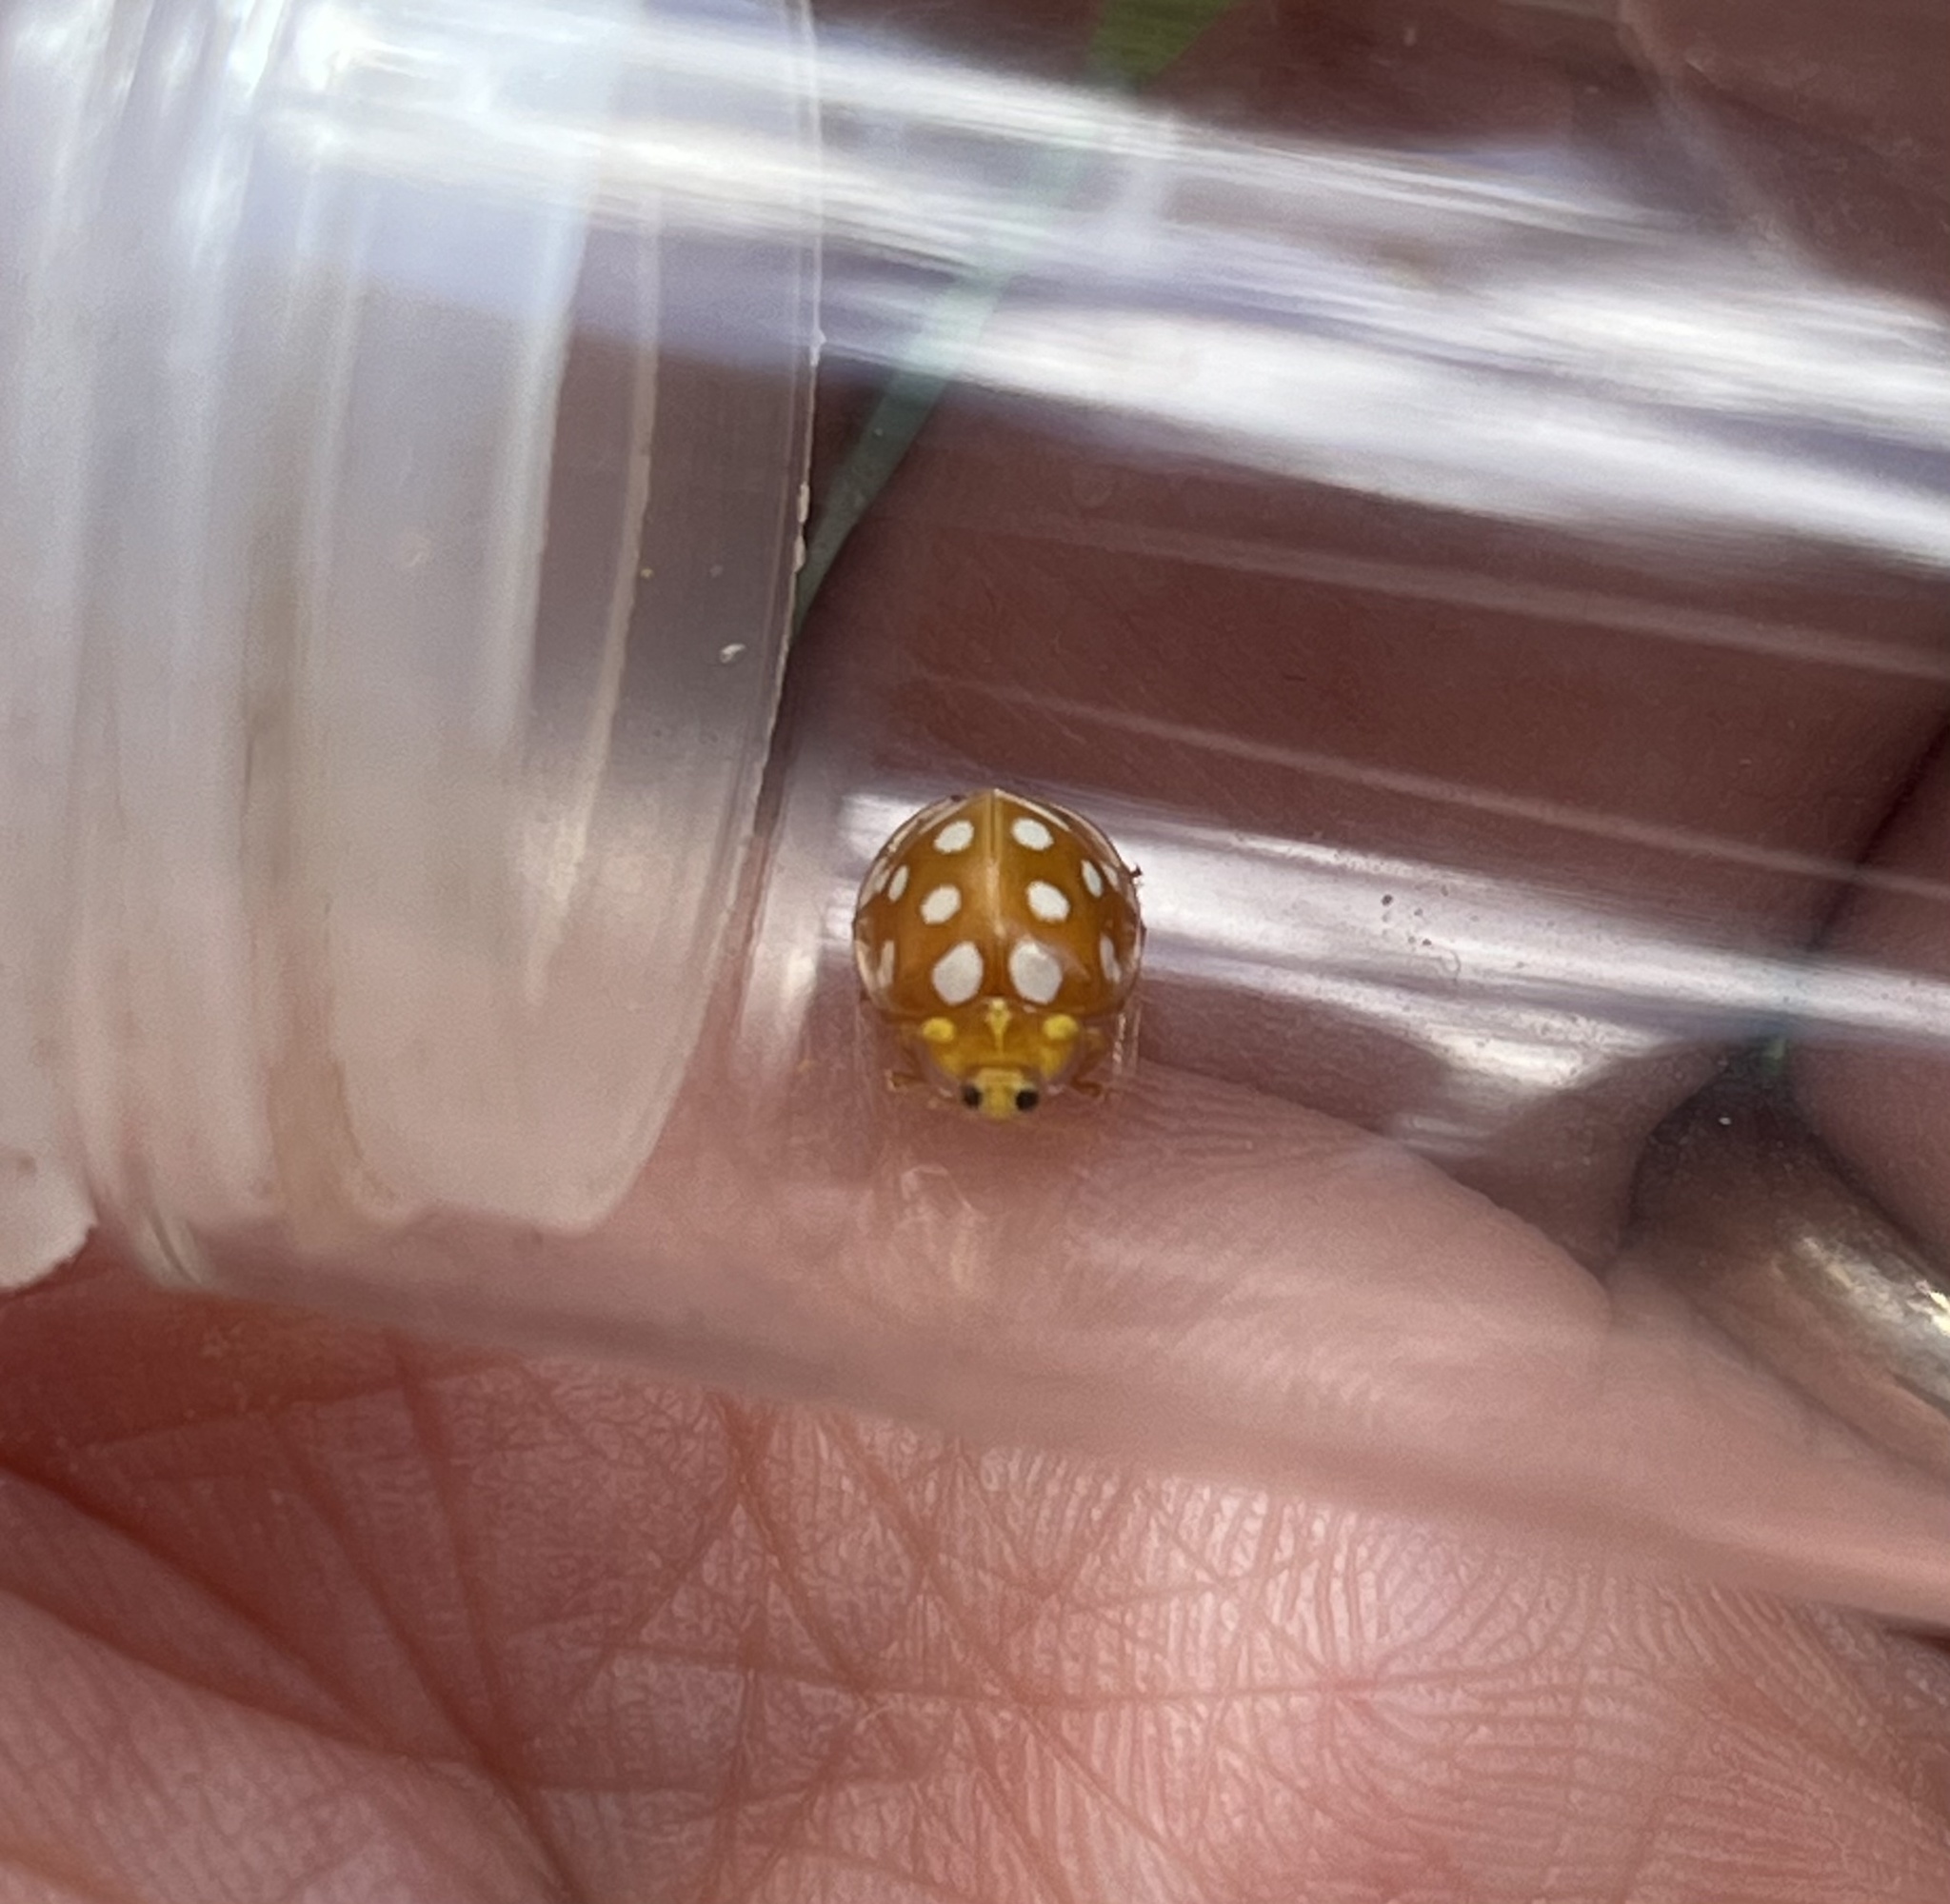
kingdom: Animalia
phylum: Arthropoda
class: Insecta
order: Coleoptera
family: Coccinellidae
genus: Halyzia
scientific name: Halyzia sedecimguttata
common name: Orange ladybird
